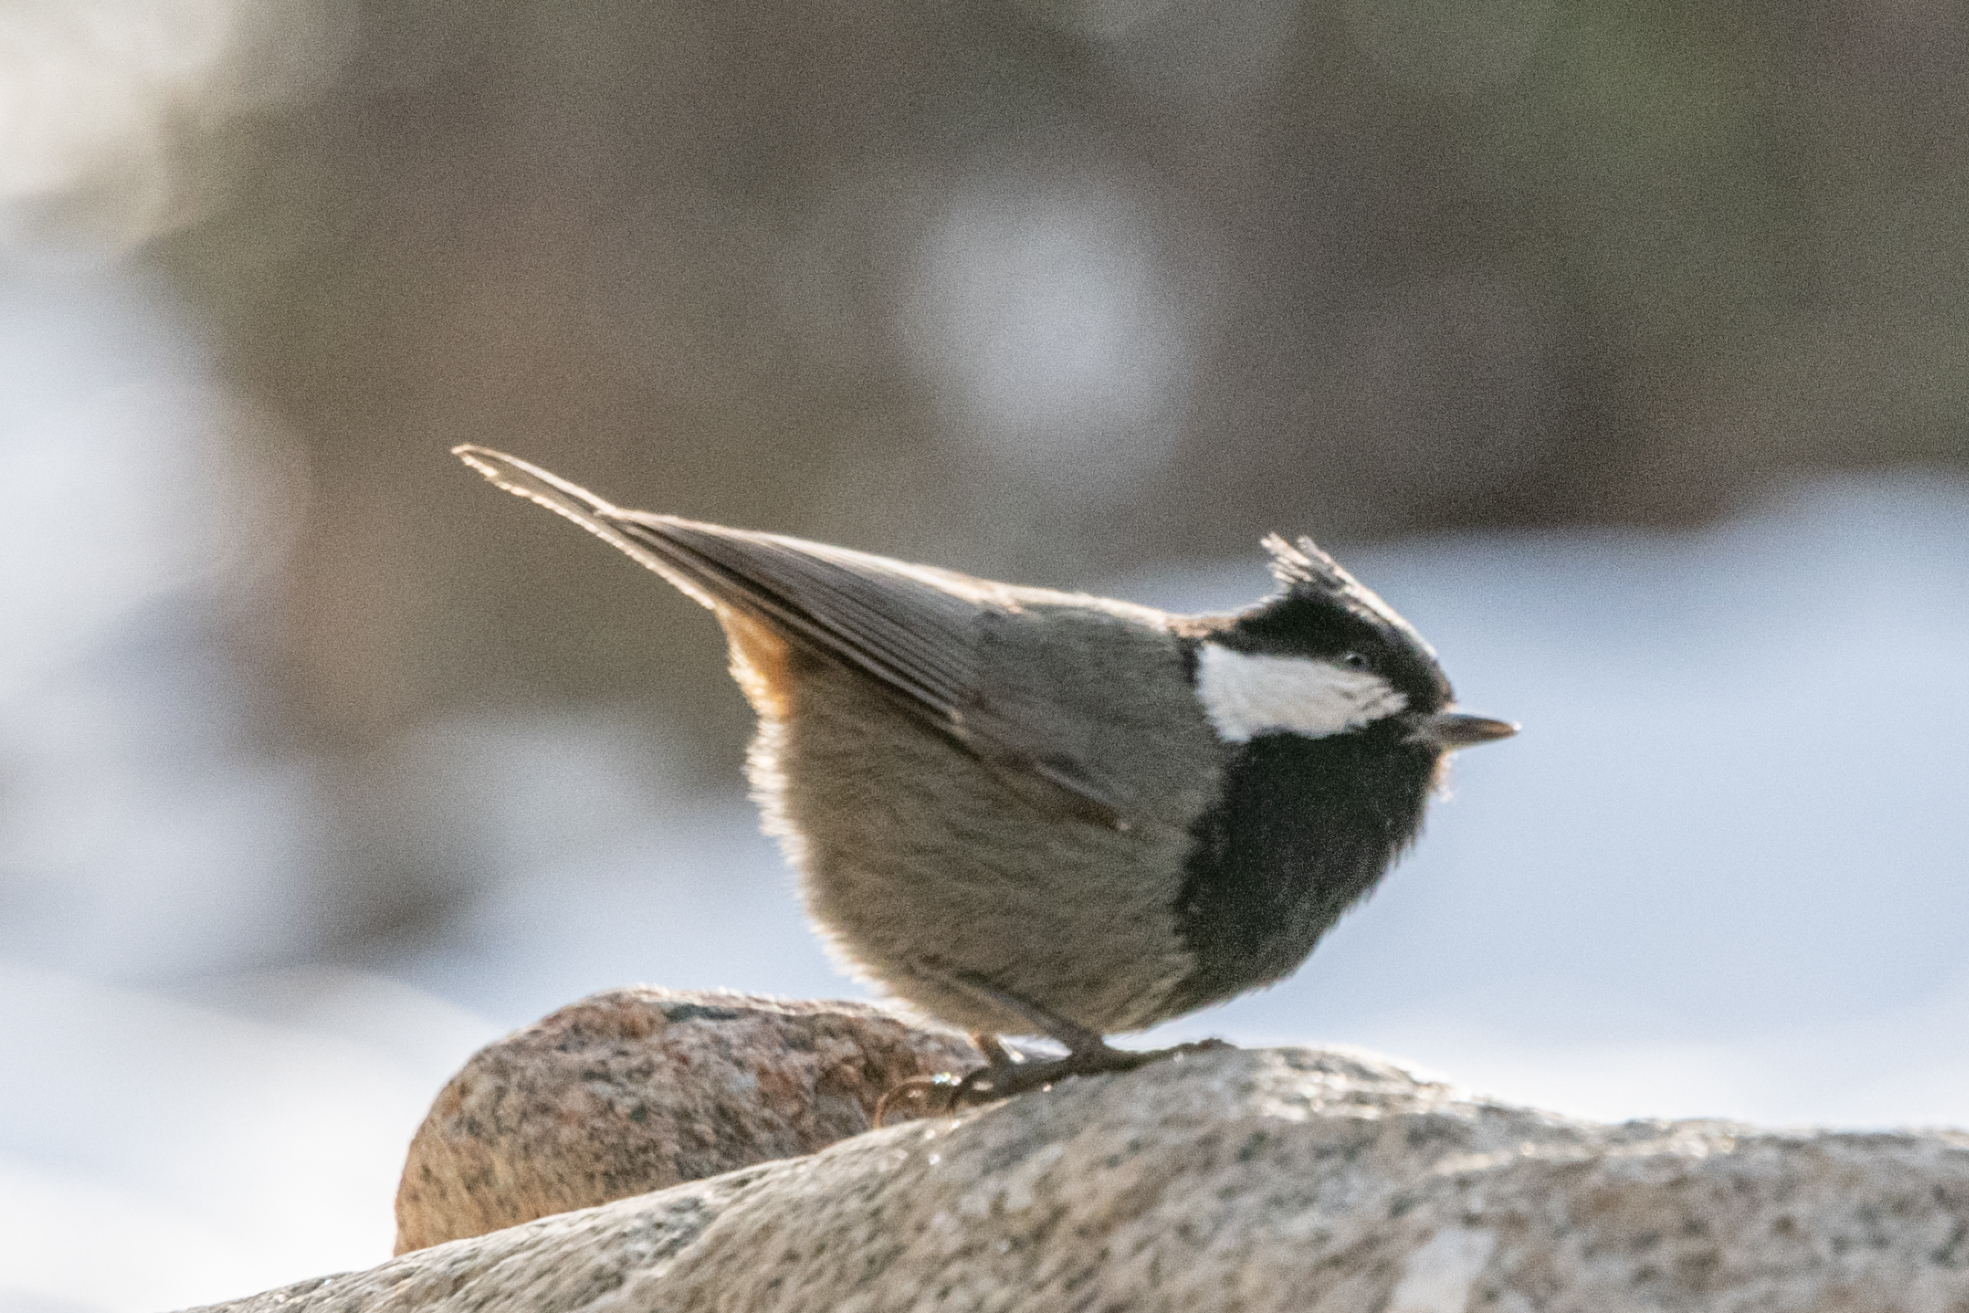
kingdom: Animalia
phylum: Chordata
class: Aves
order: Passeriformes
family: Paridae
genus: Periparus
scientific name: Periparus rufonuchalis
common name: Rufous-naped tit
